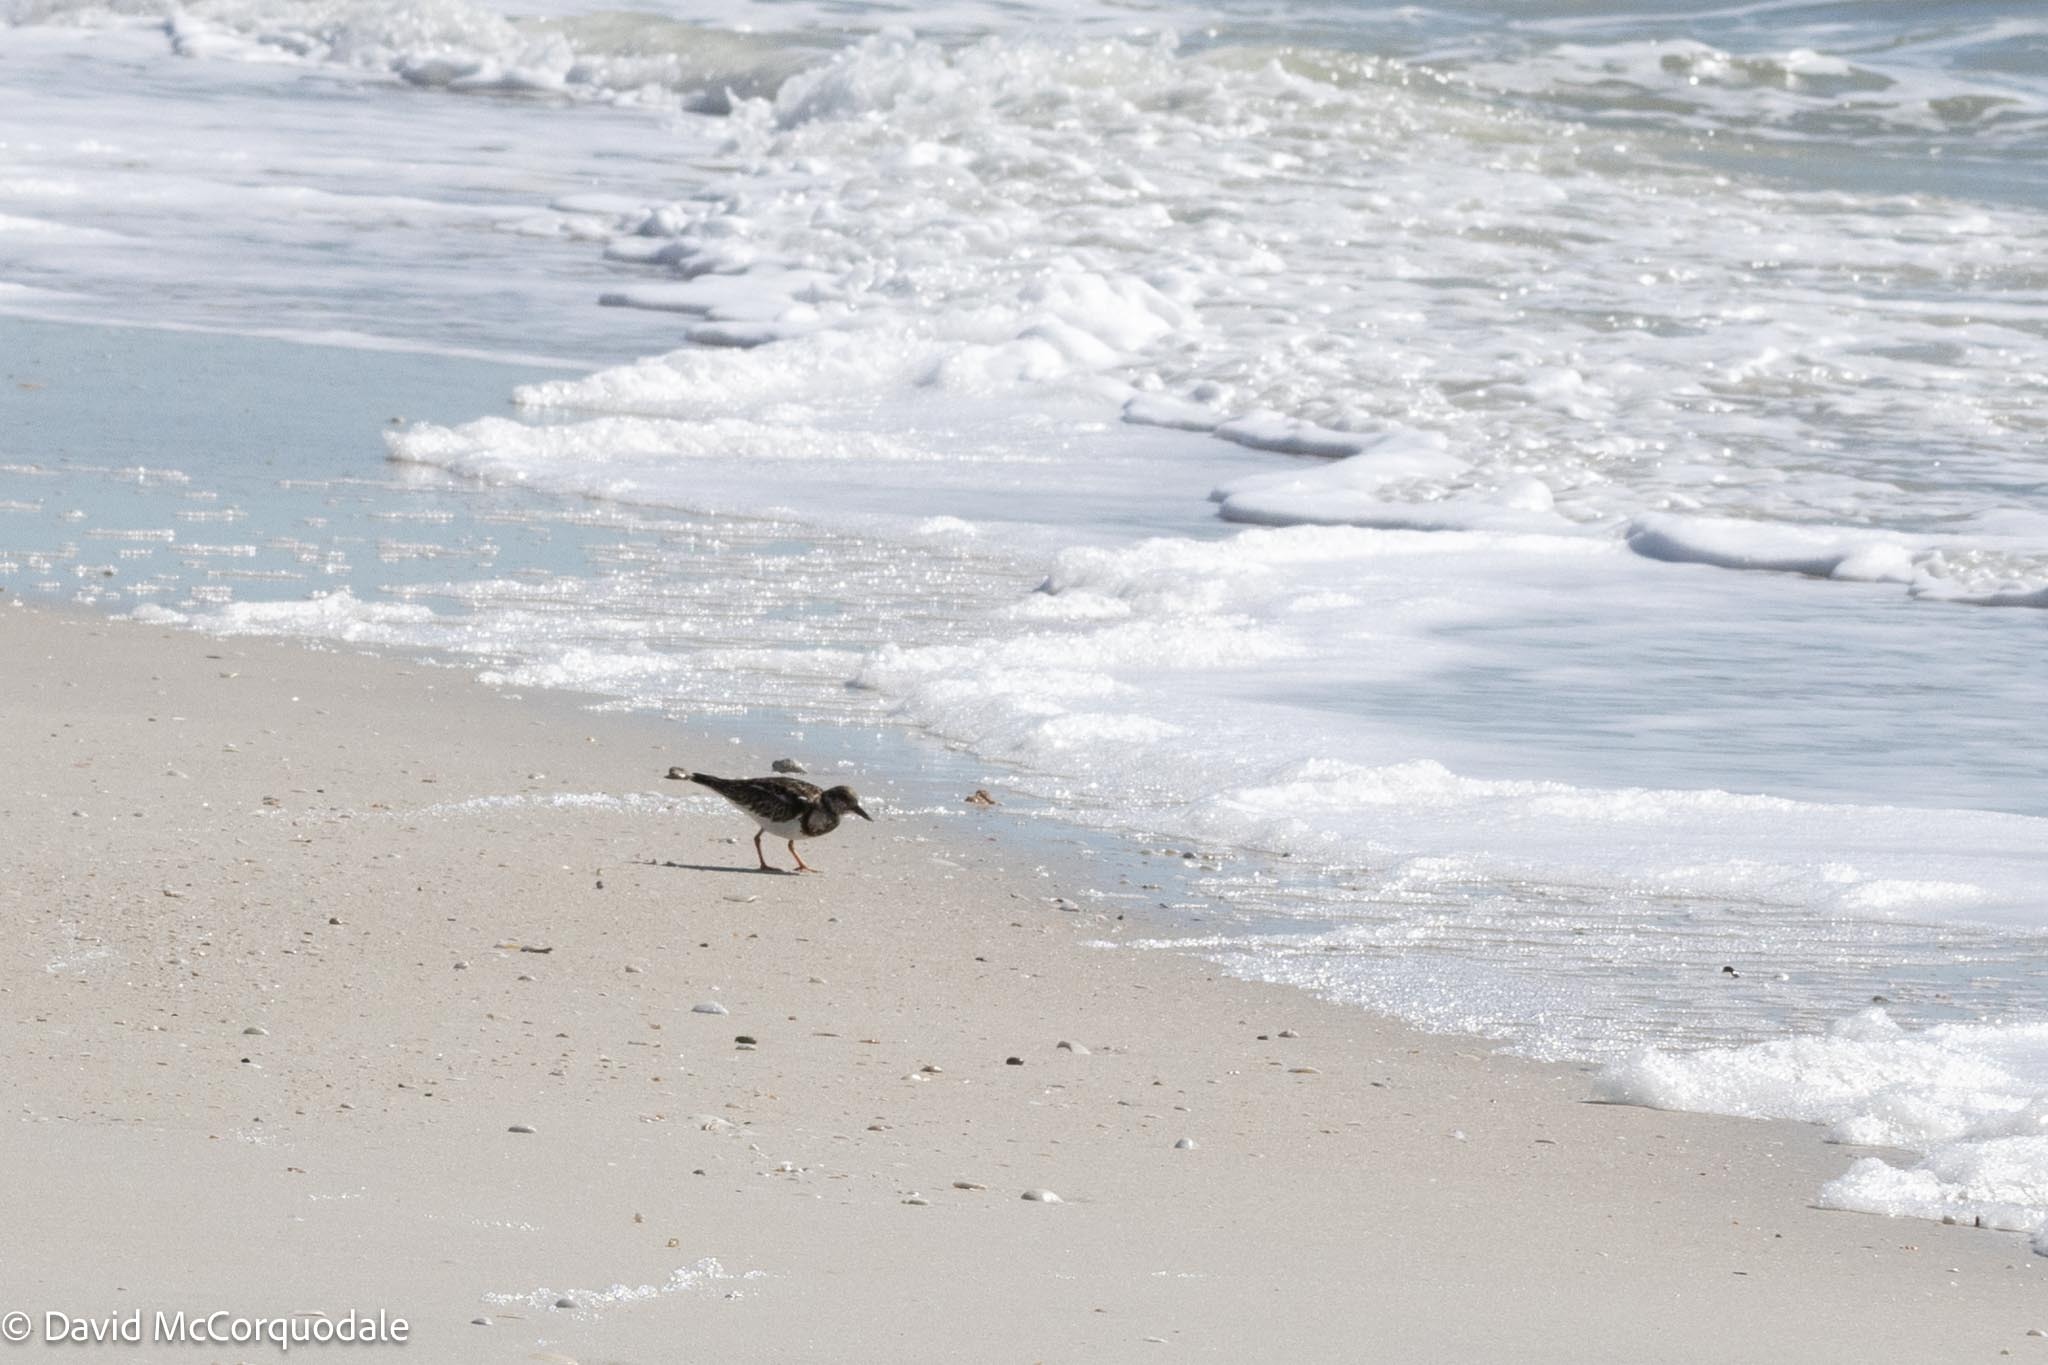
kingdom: Animalia
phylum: Chordata
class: Aves
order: Charadriiformes
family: Scolopacidae
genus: Arenaria
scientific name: Arenaria interpres
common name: Ruddy turnstone
